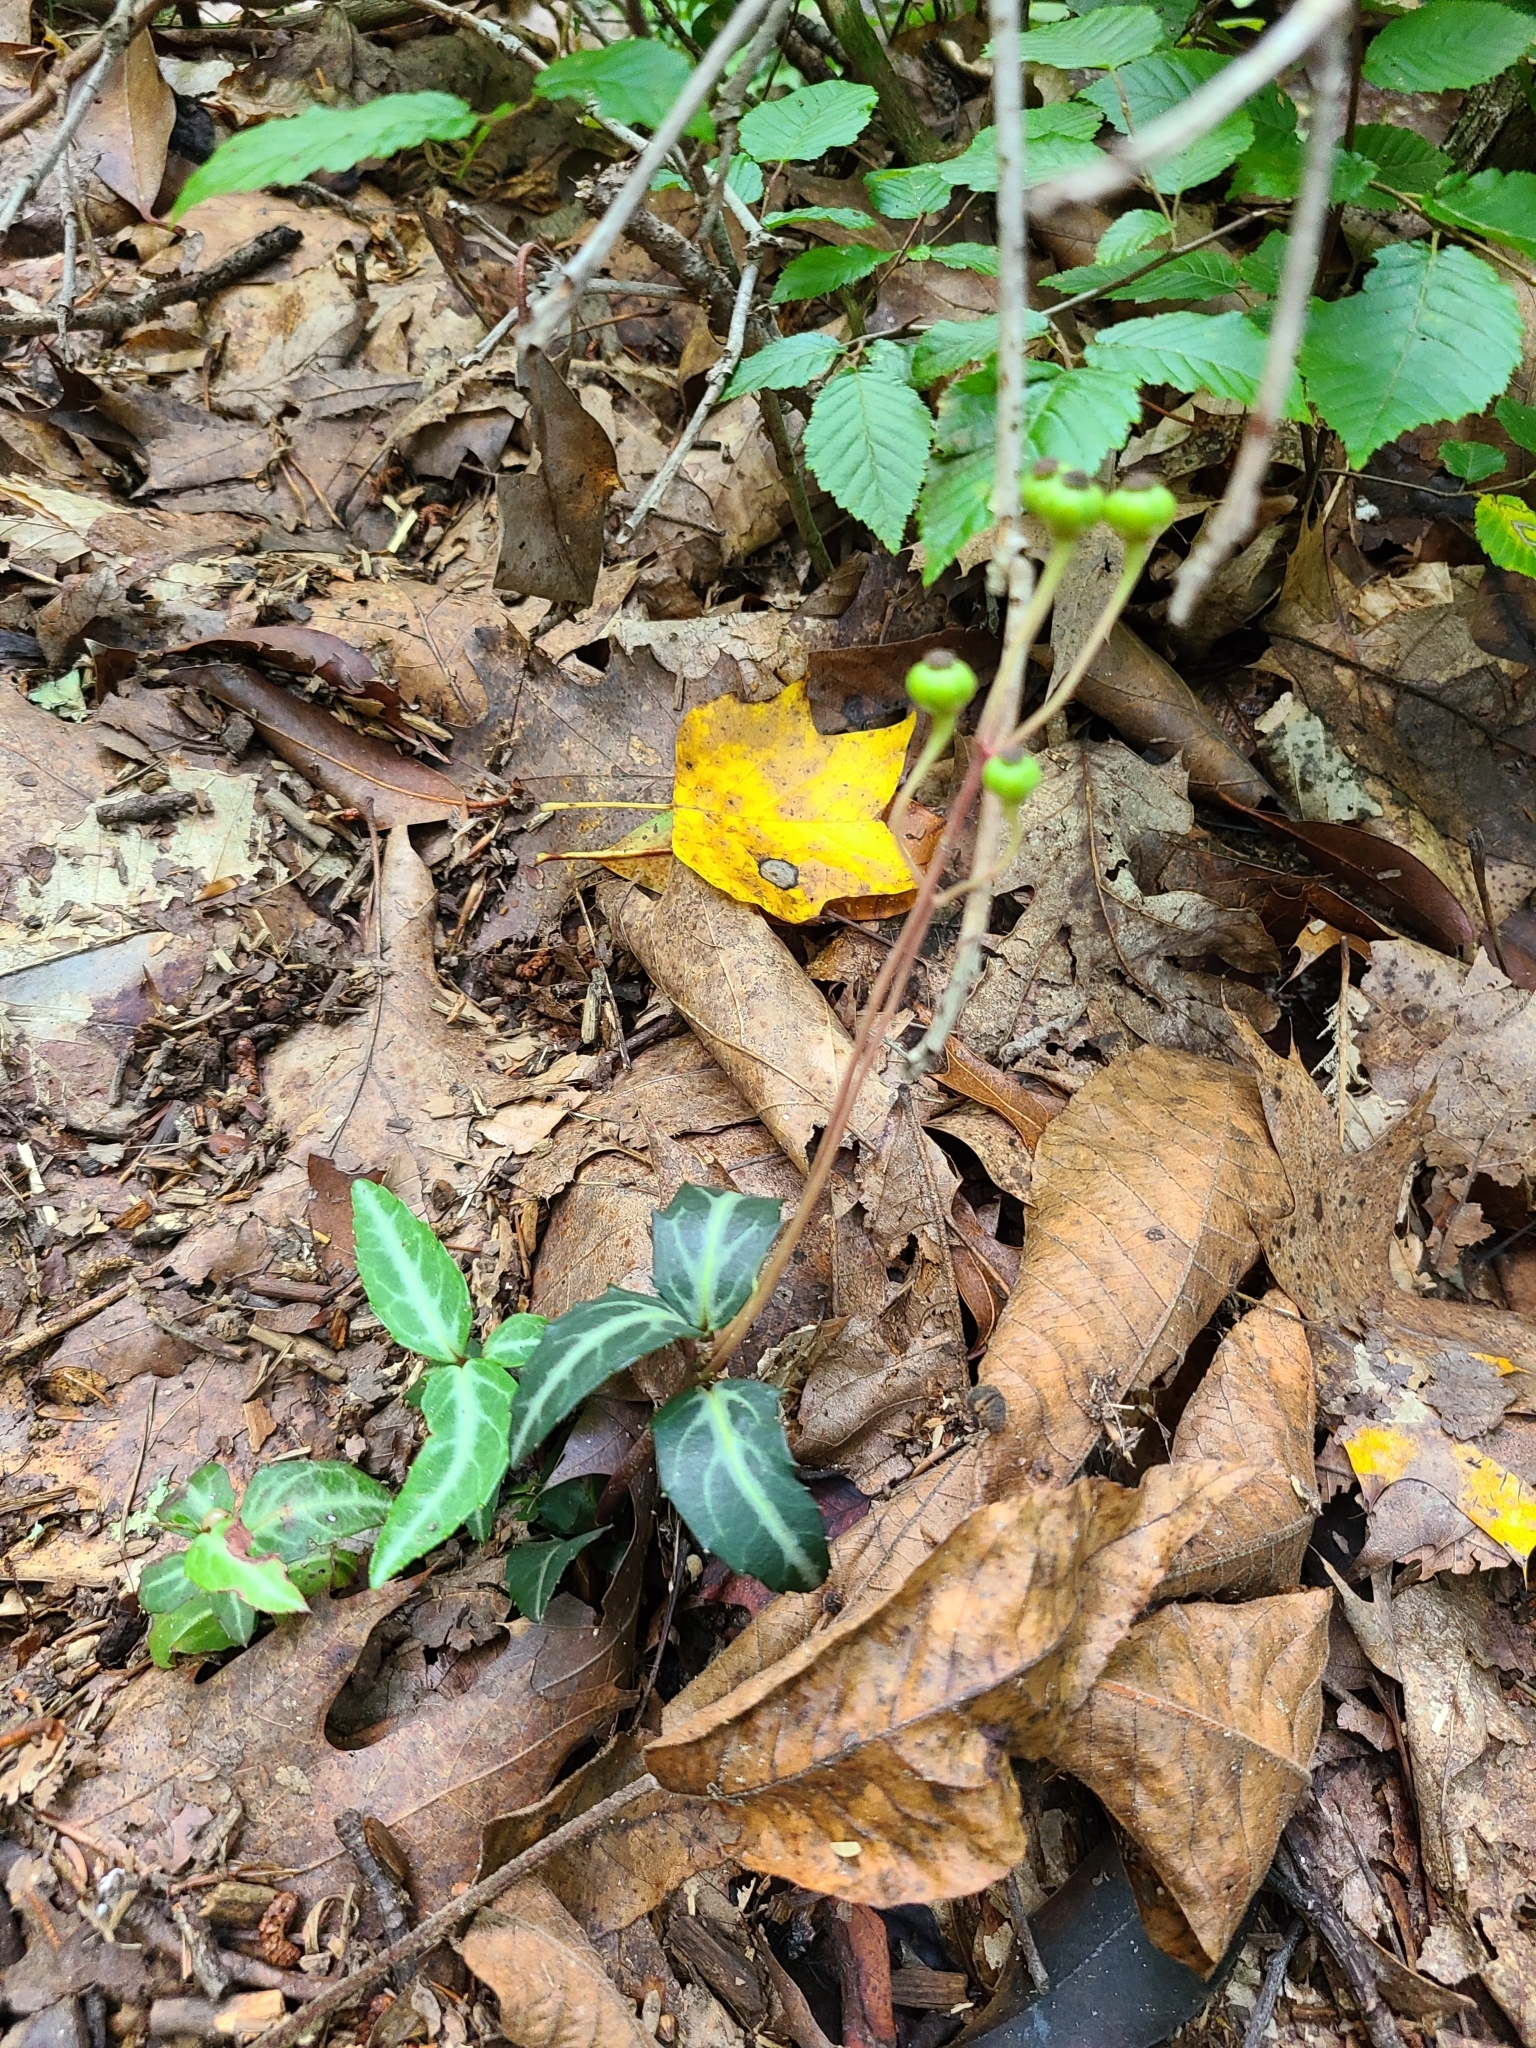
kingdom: Plantae
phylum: Tracheophyta
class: Magnoliopsida
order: Ericales
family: Ericaceae
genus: Chimaphila
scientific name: Chimaphila maculata
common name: Spotted pipsissewa
